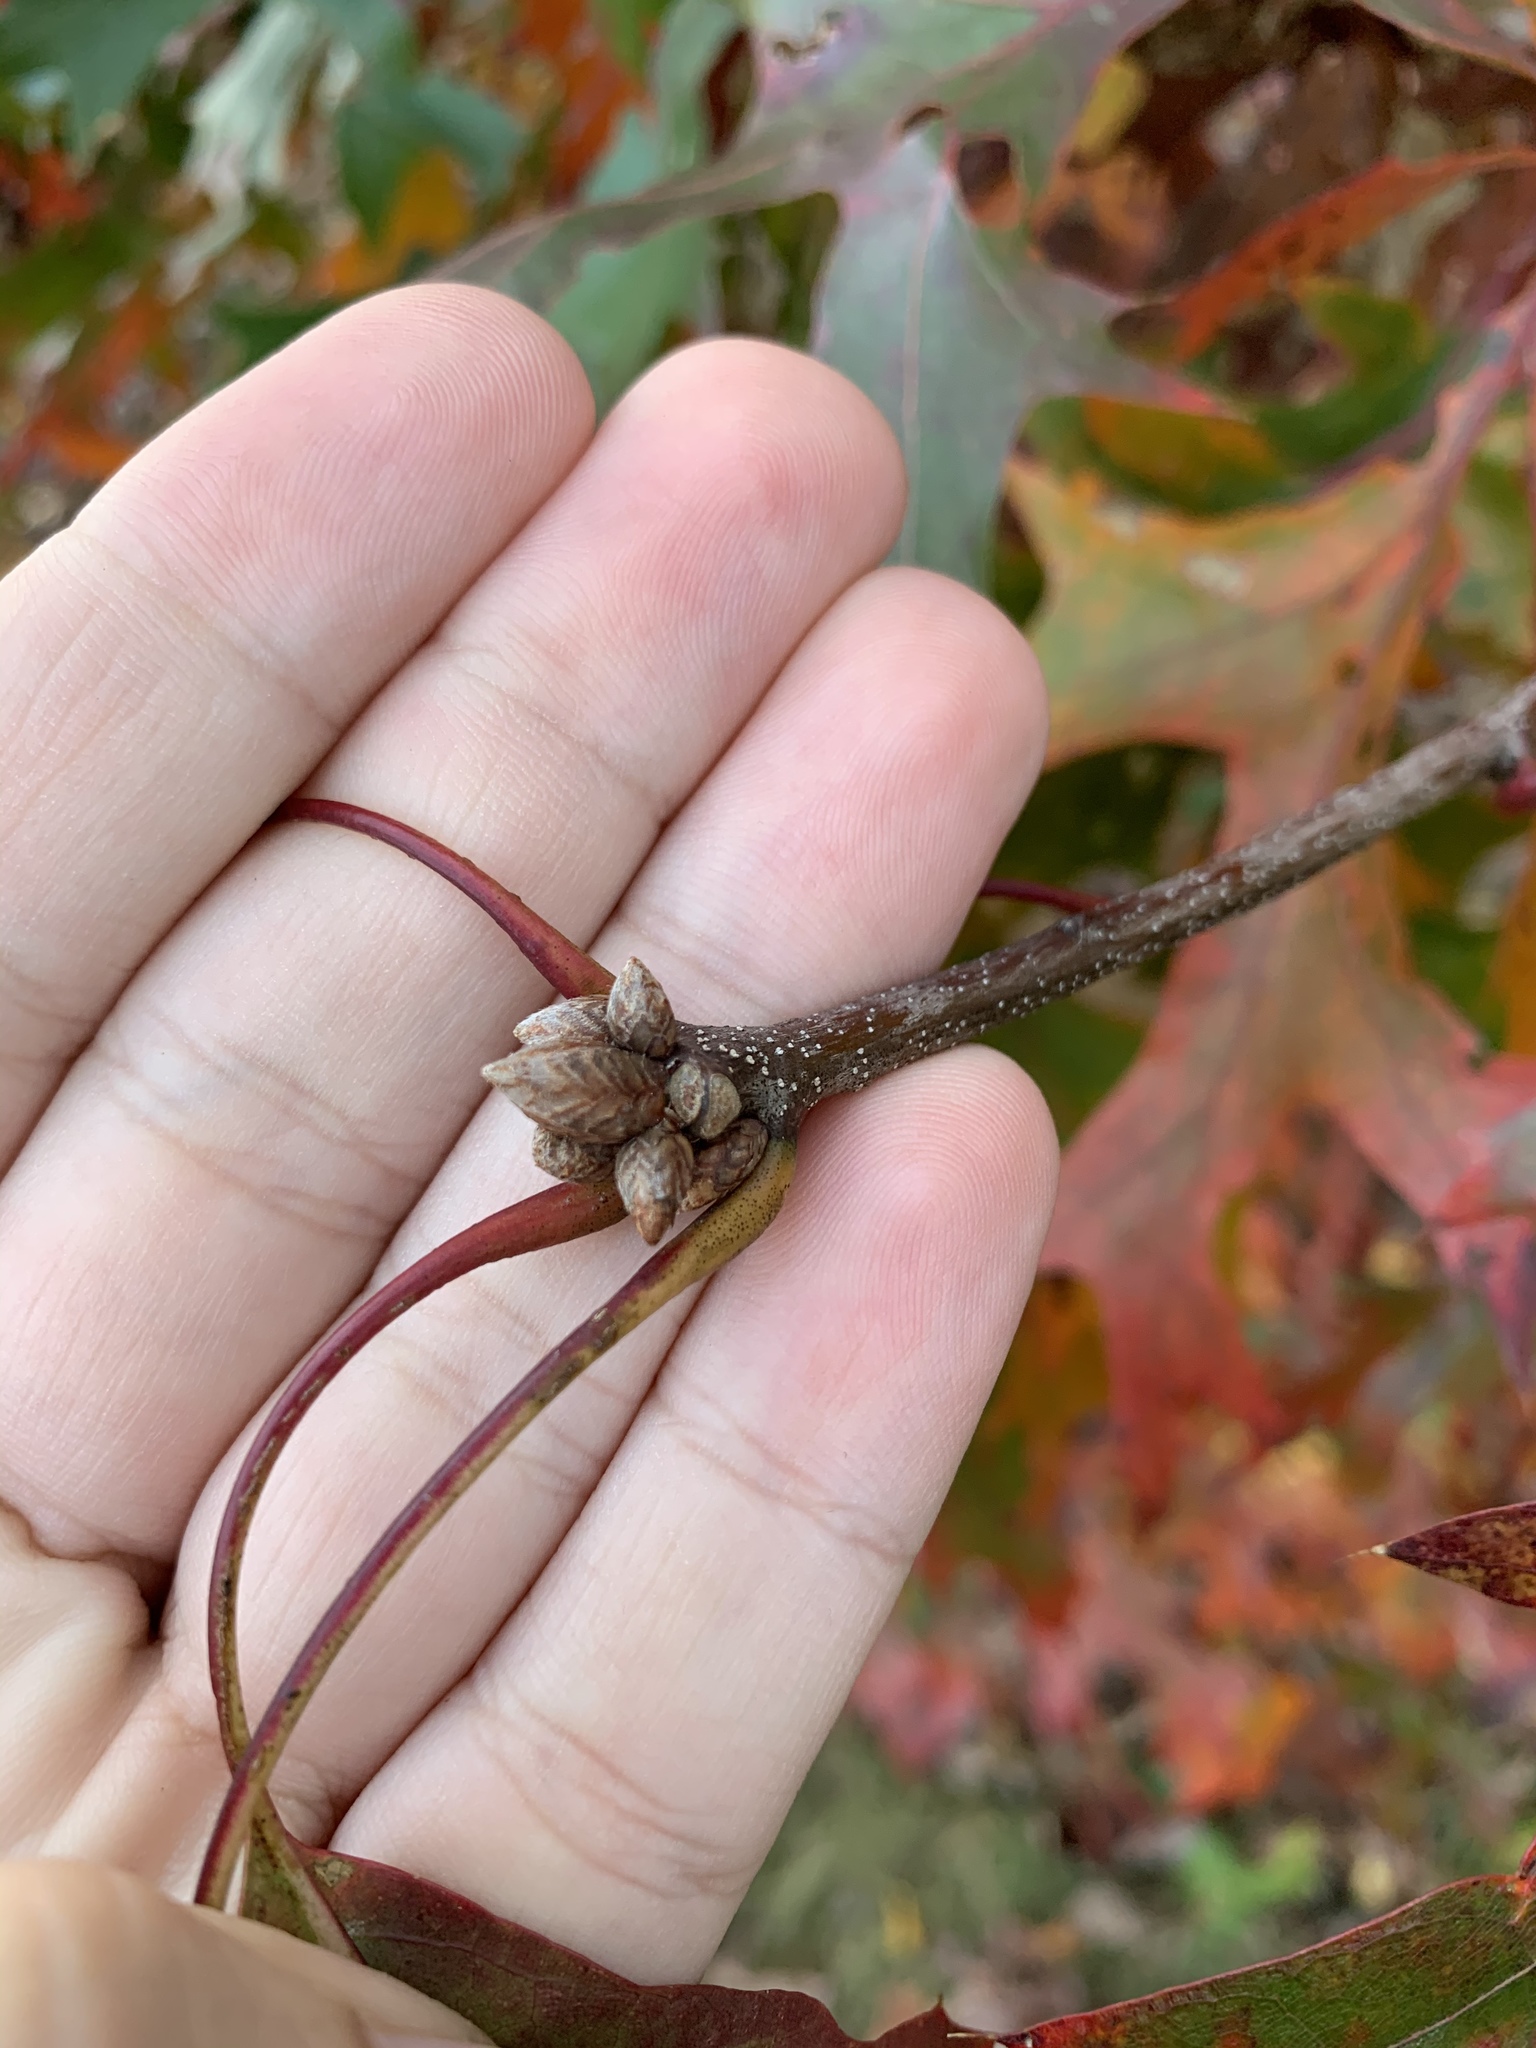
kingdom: Plantae
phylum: Tracheophyta
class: Magnoliopsida
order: Fagales
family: Fagaceae
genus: Quercus
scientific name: Quercus coccinea
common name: Scarlet oak
